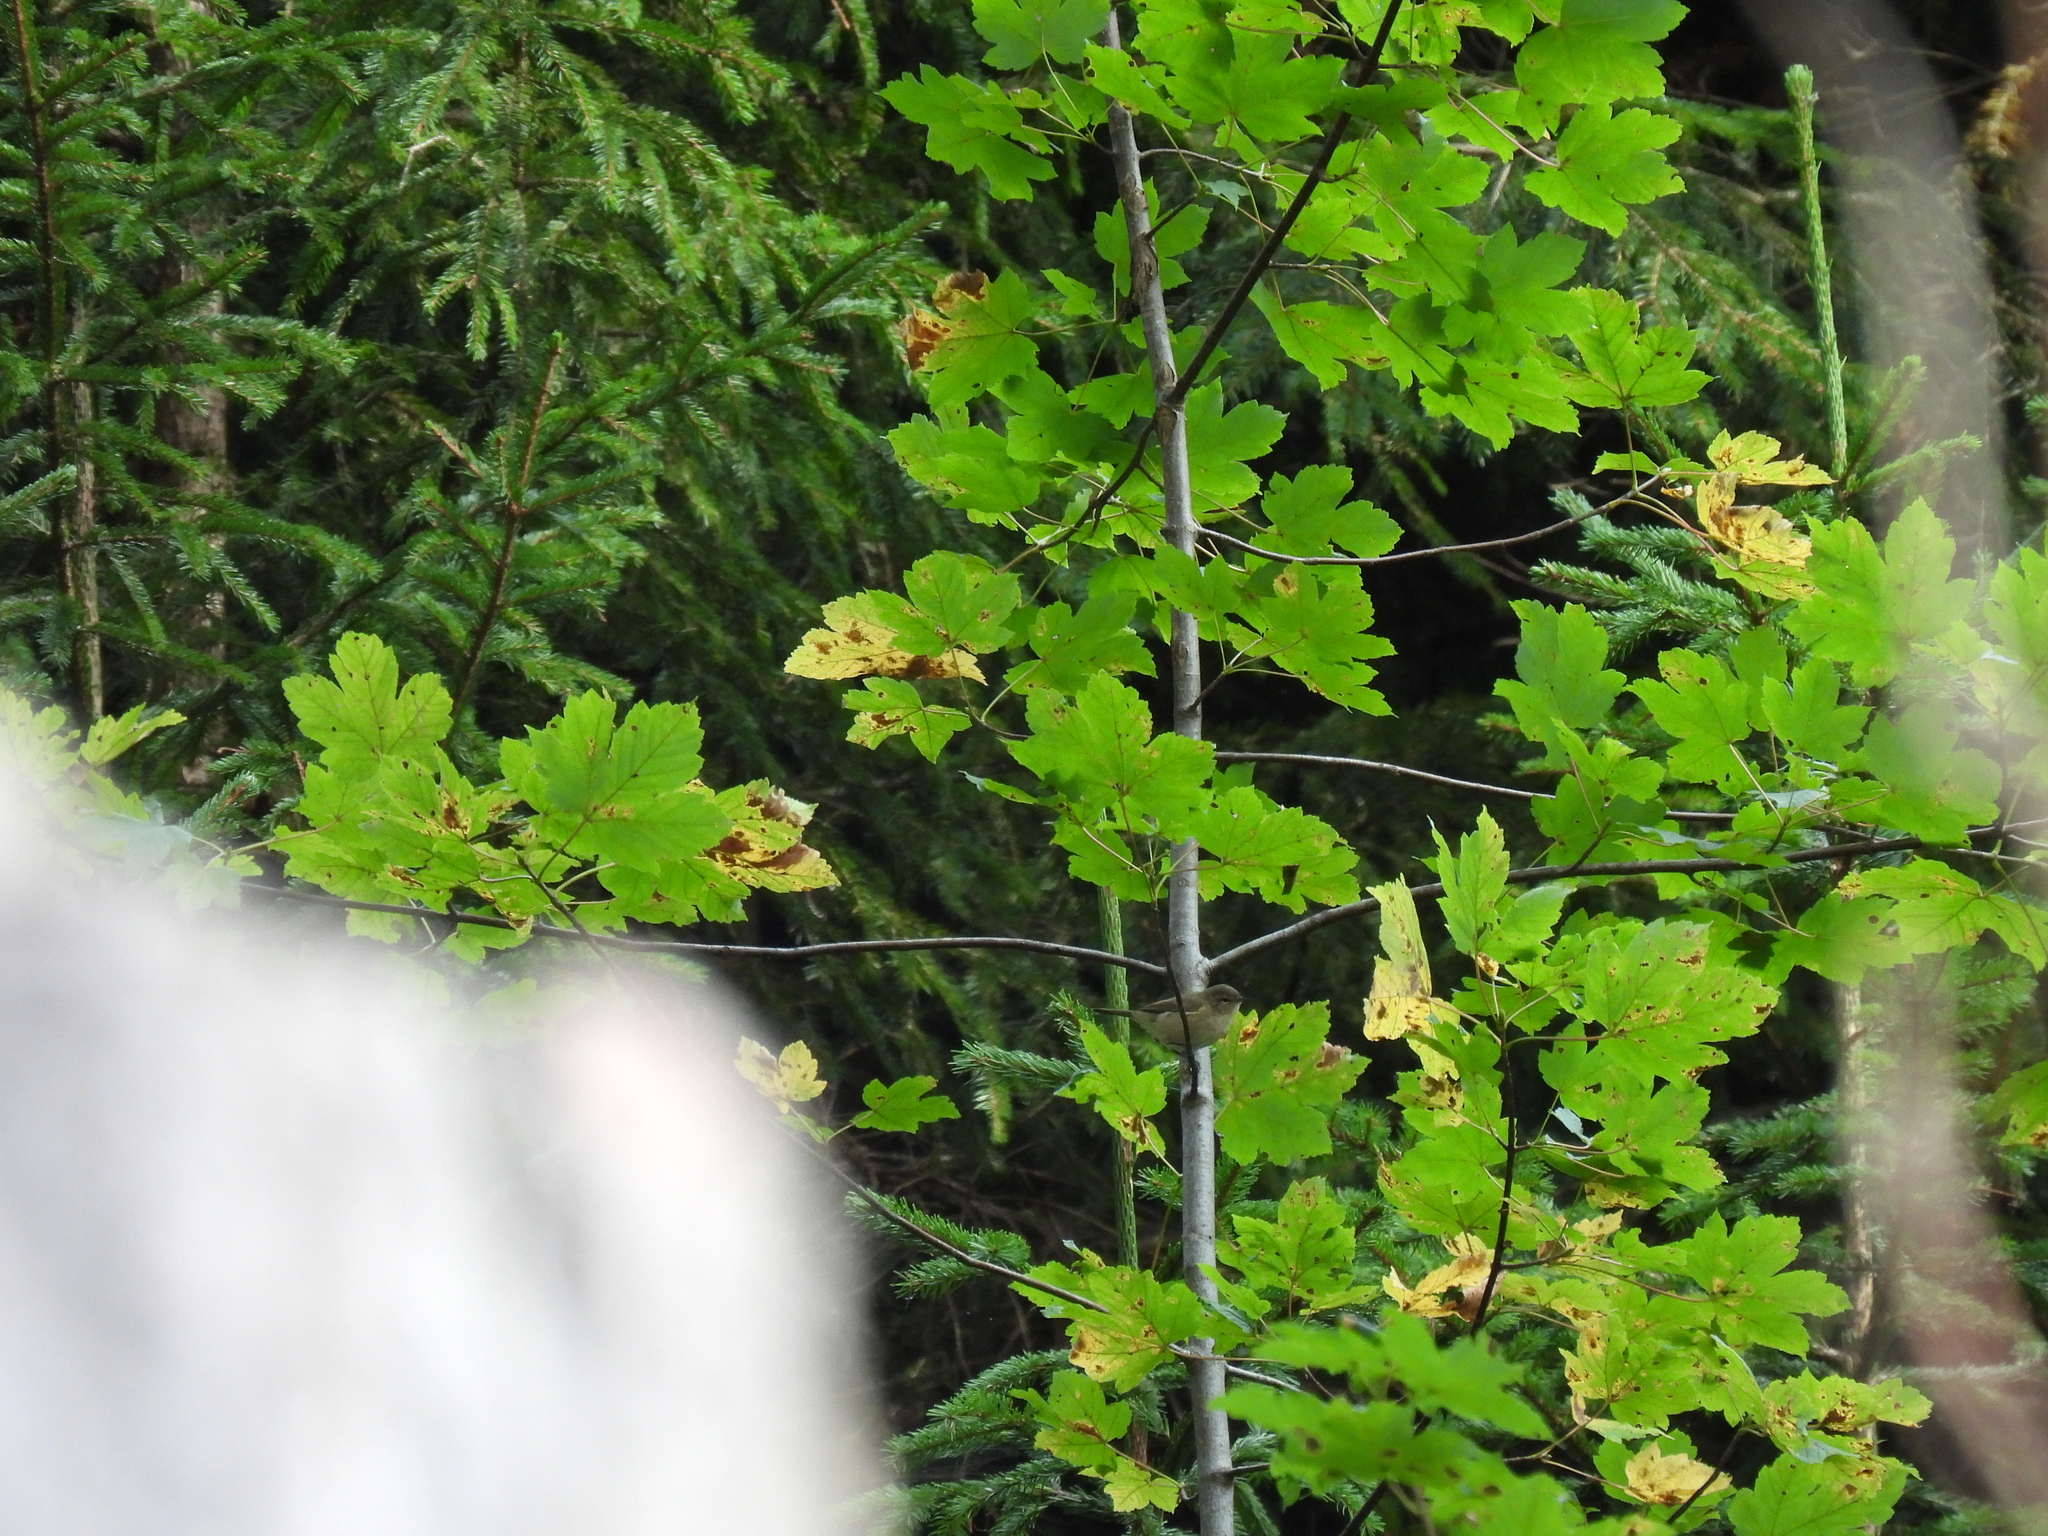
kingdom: Animalia
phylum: Chordata
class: Aves
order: Passeriformes
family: Sylviidae
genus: Sylvia
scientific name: Sylvia borin
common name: Garden warbler
